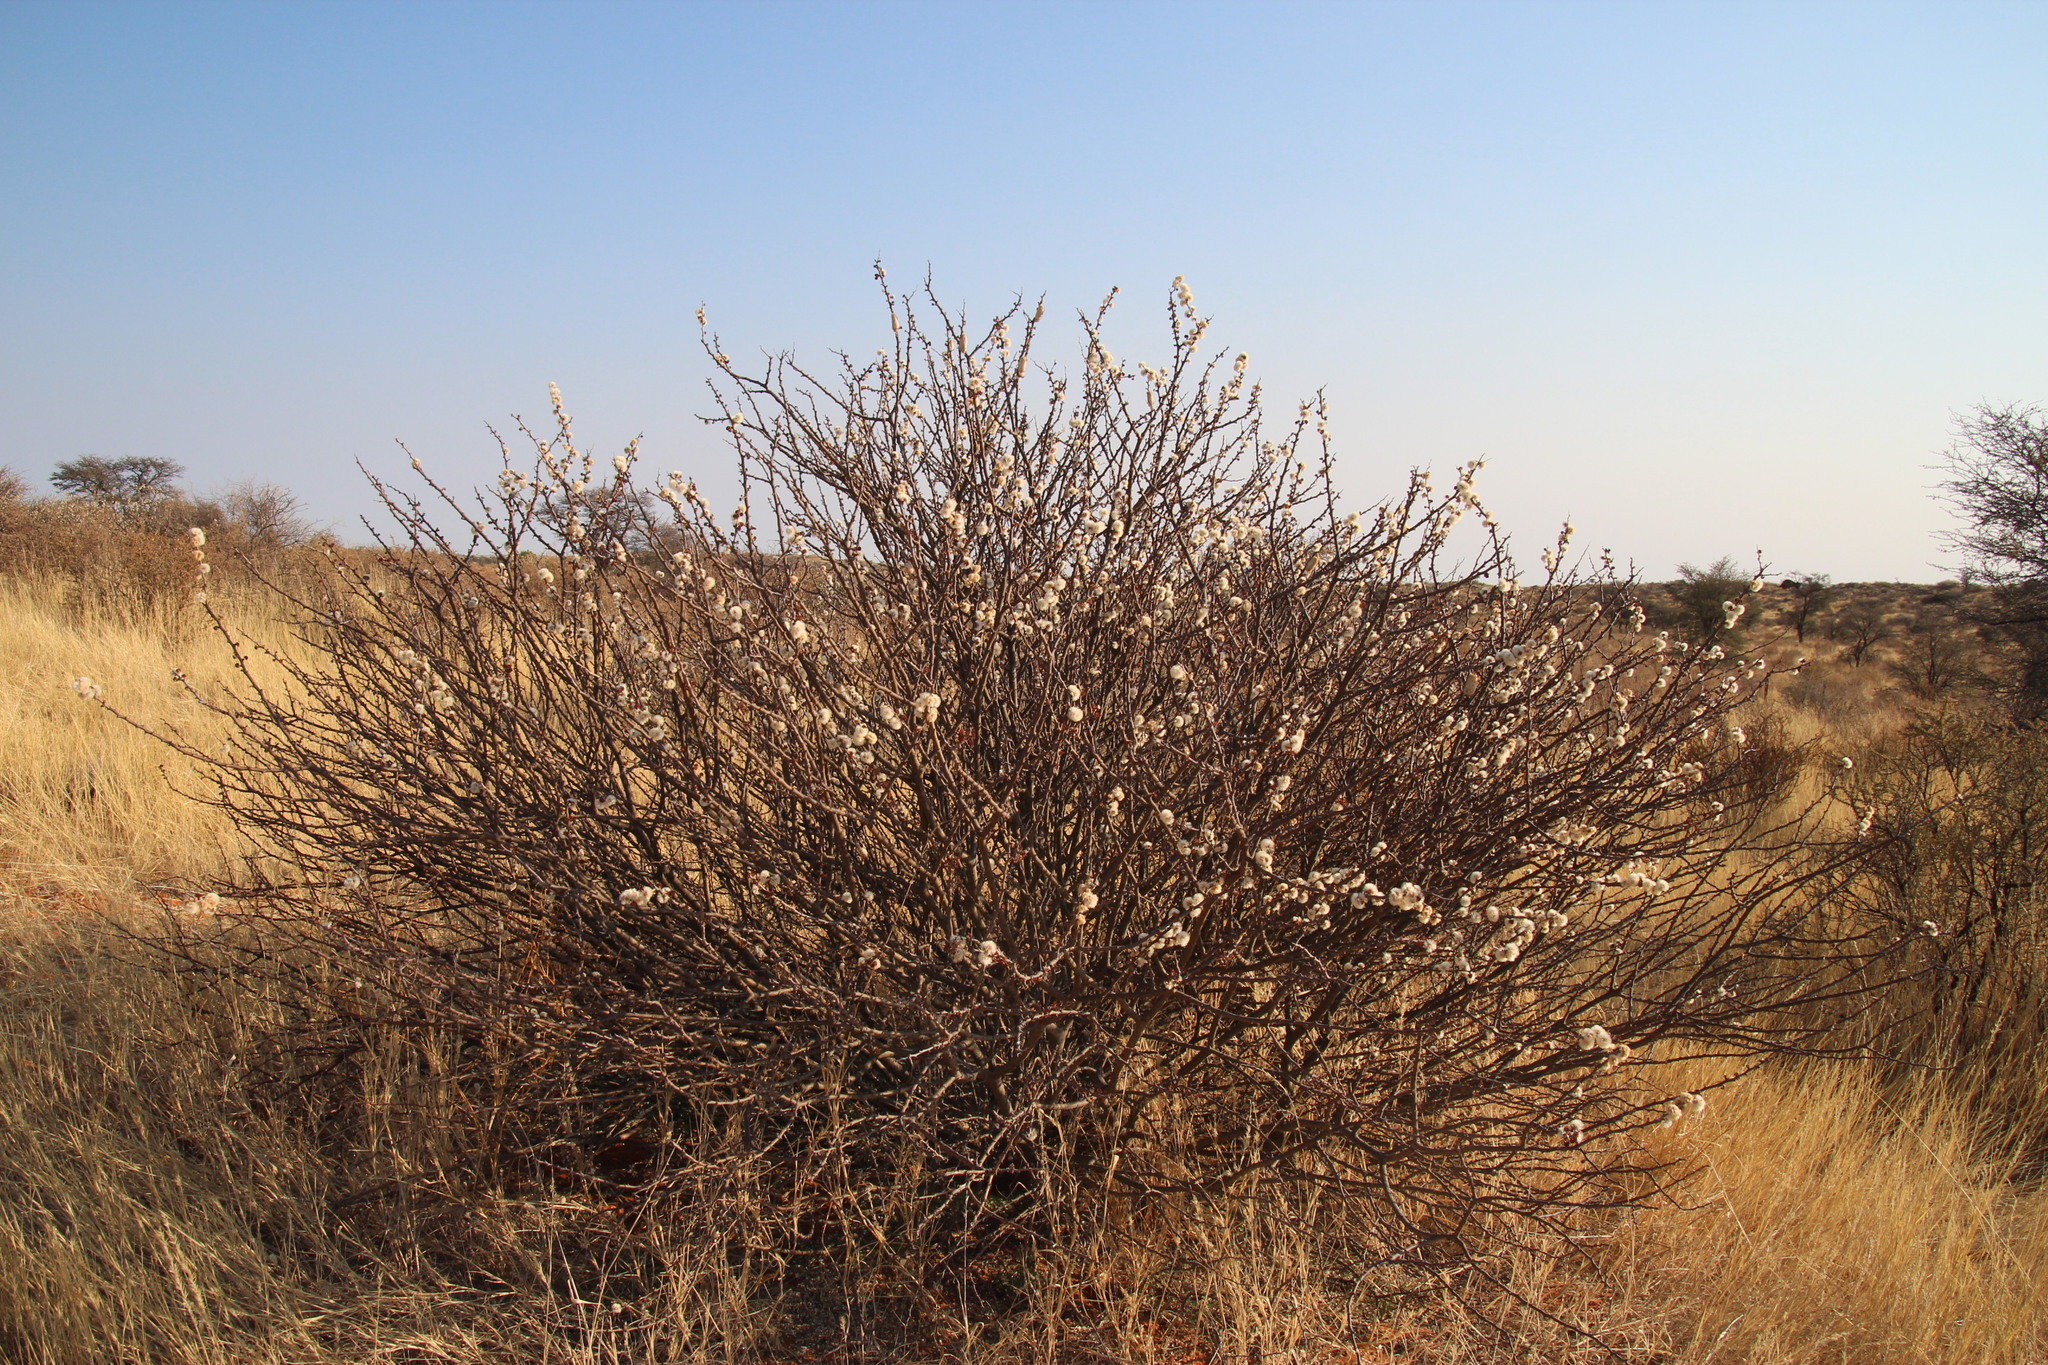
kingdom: Plantae
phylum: Tracheophyta
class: Magnoliopsida
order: Fabales
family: Fabaceae
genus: Senegalia
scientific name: Senegalia mellifera
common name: Hookthorn
